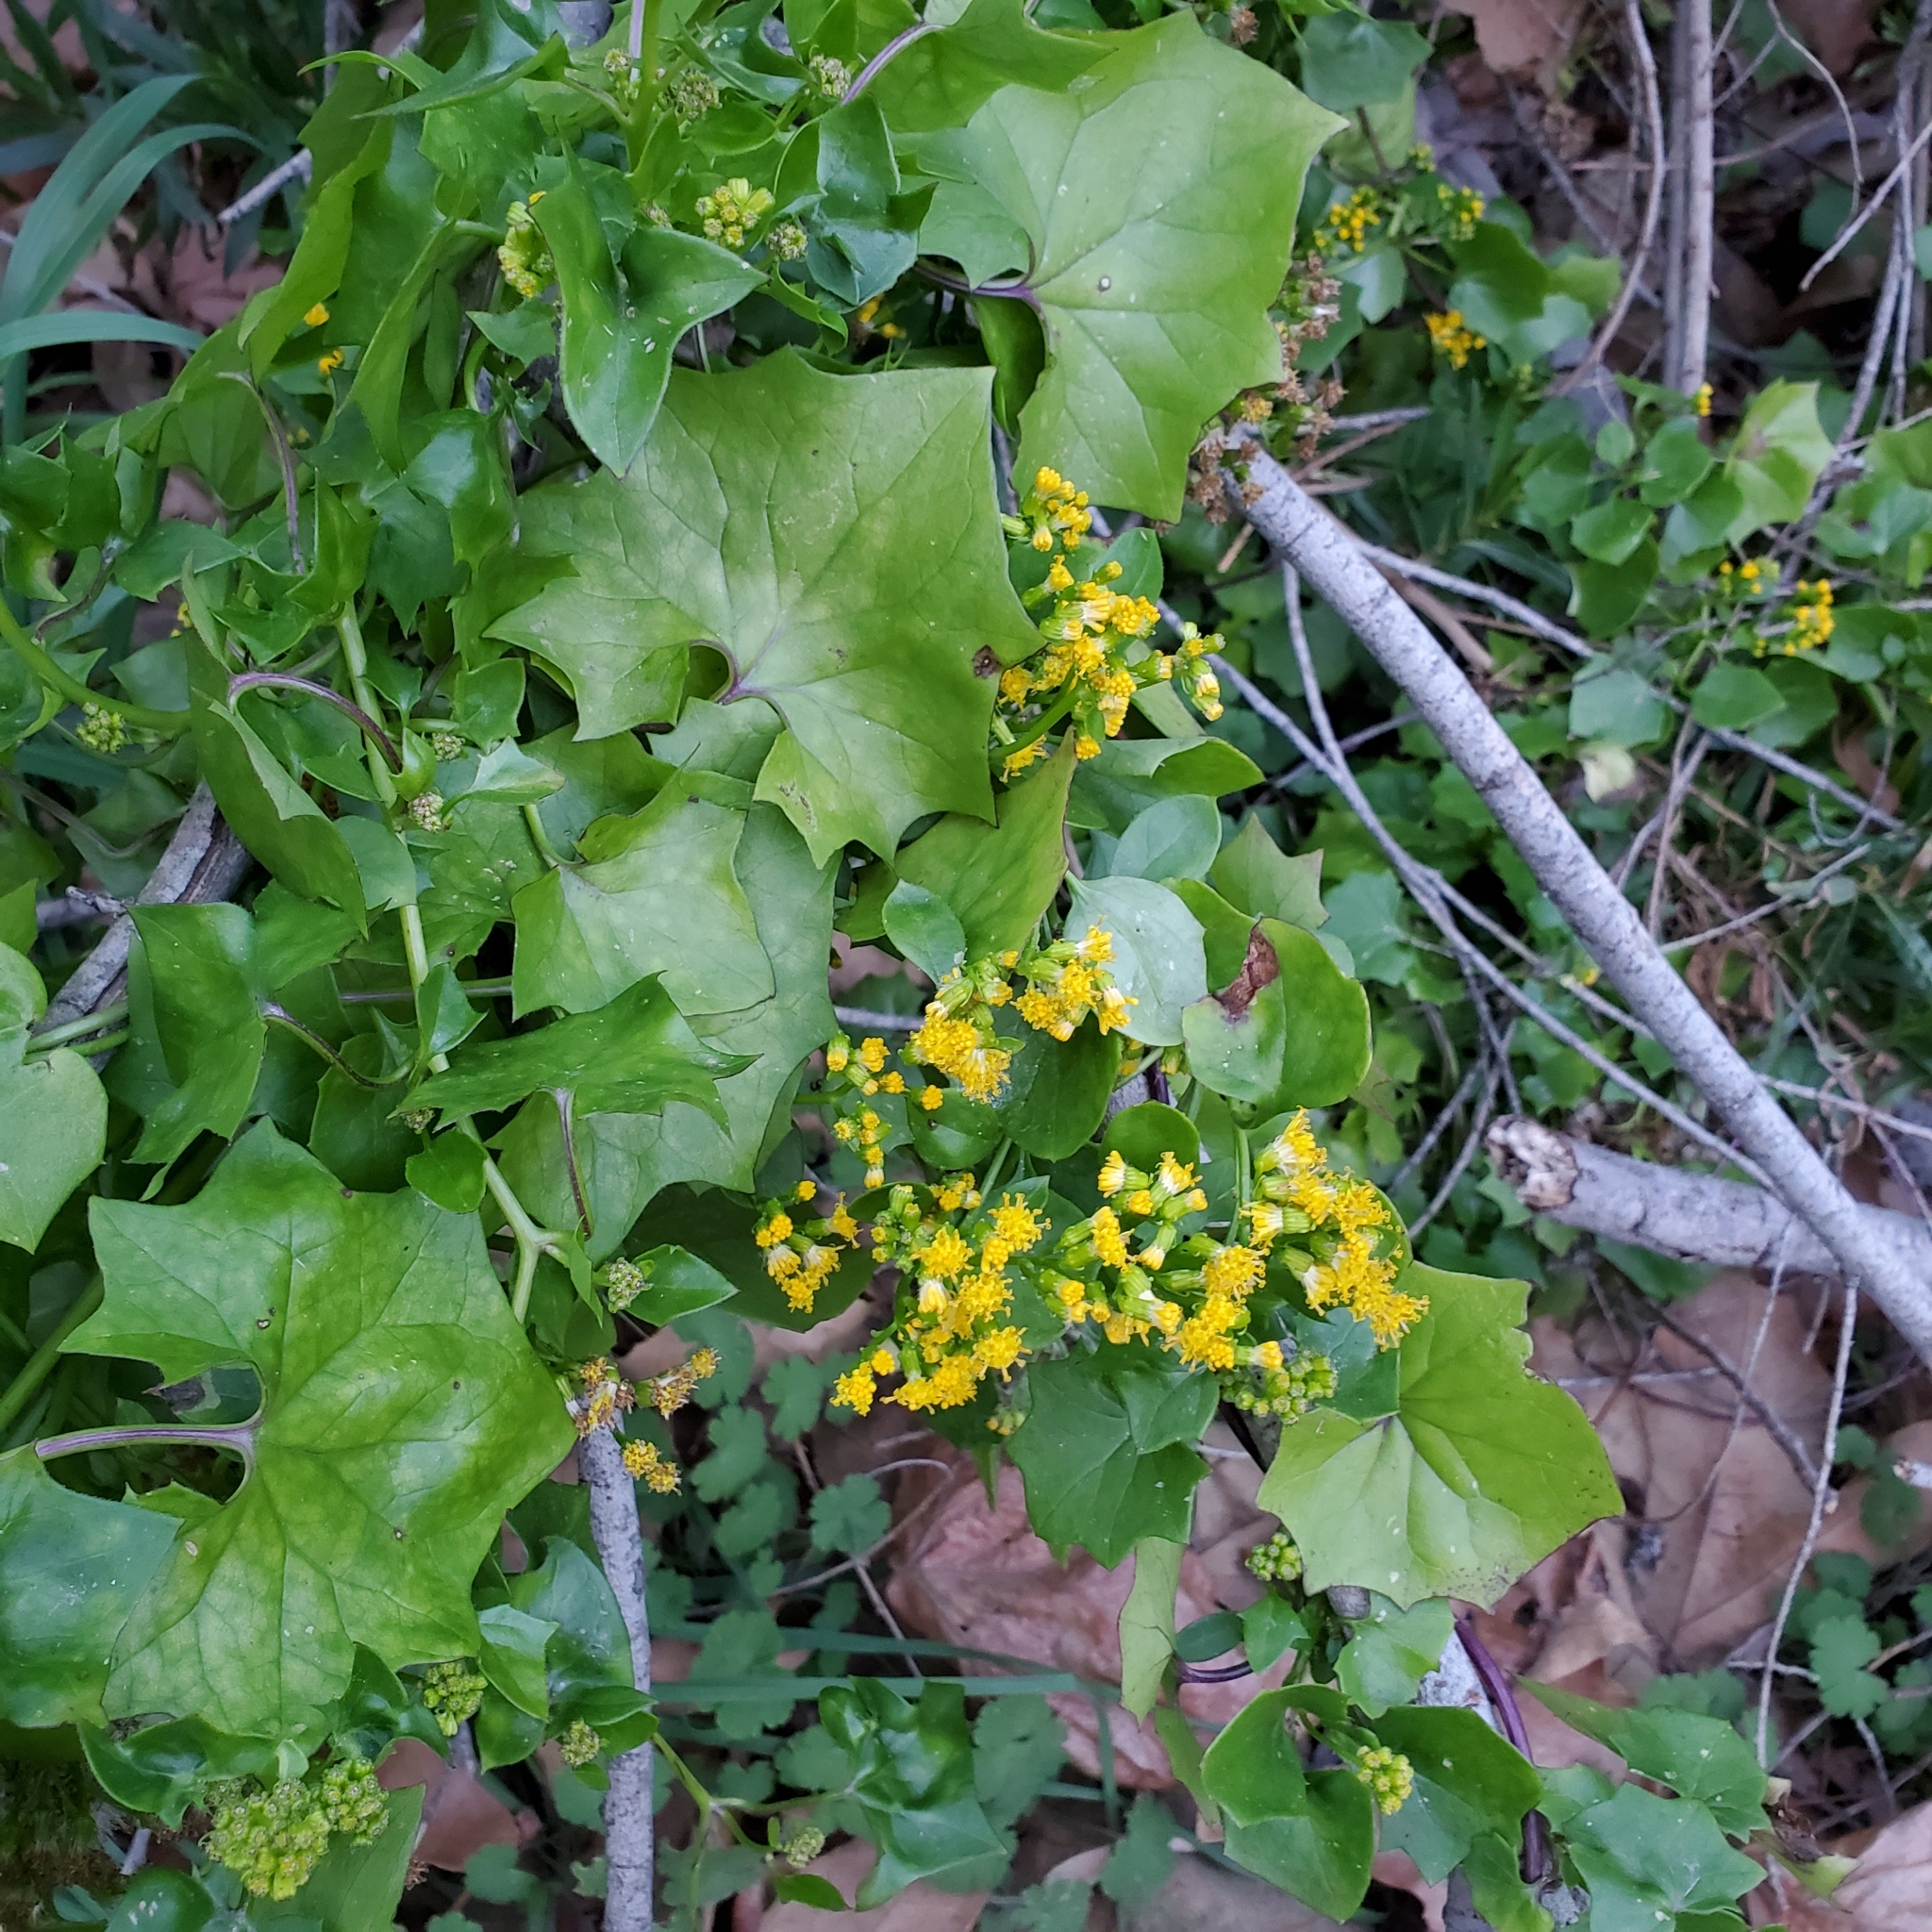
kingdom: Plantae
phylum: Tracheophyta
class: Magnoliopsida
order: Asterales
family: Asteraceae
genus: Delairea
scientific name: Delairea odorata
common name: Cape-ivy
